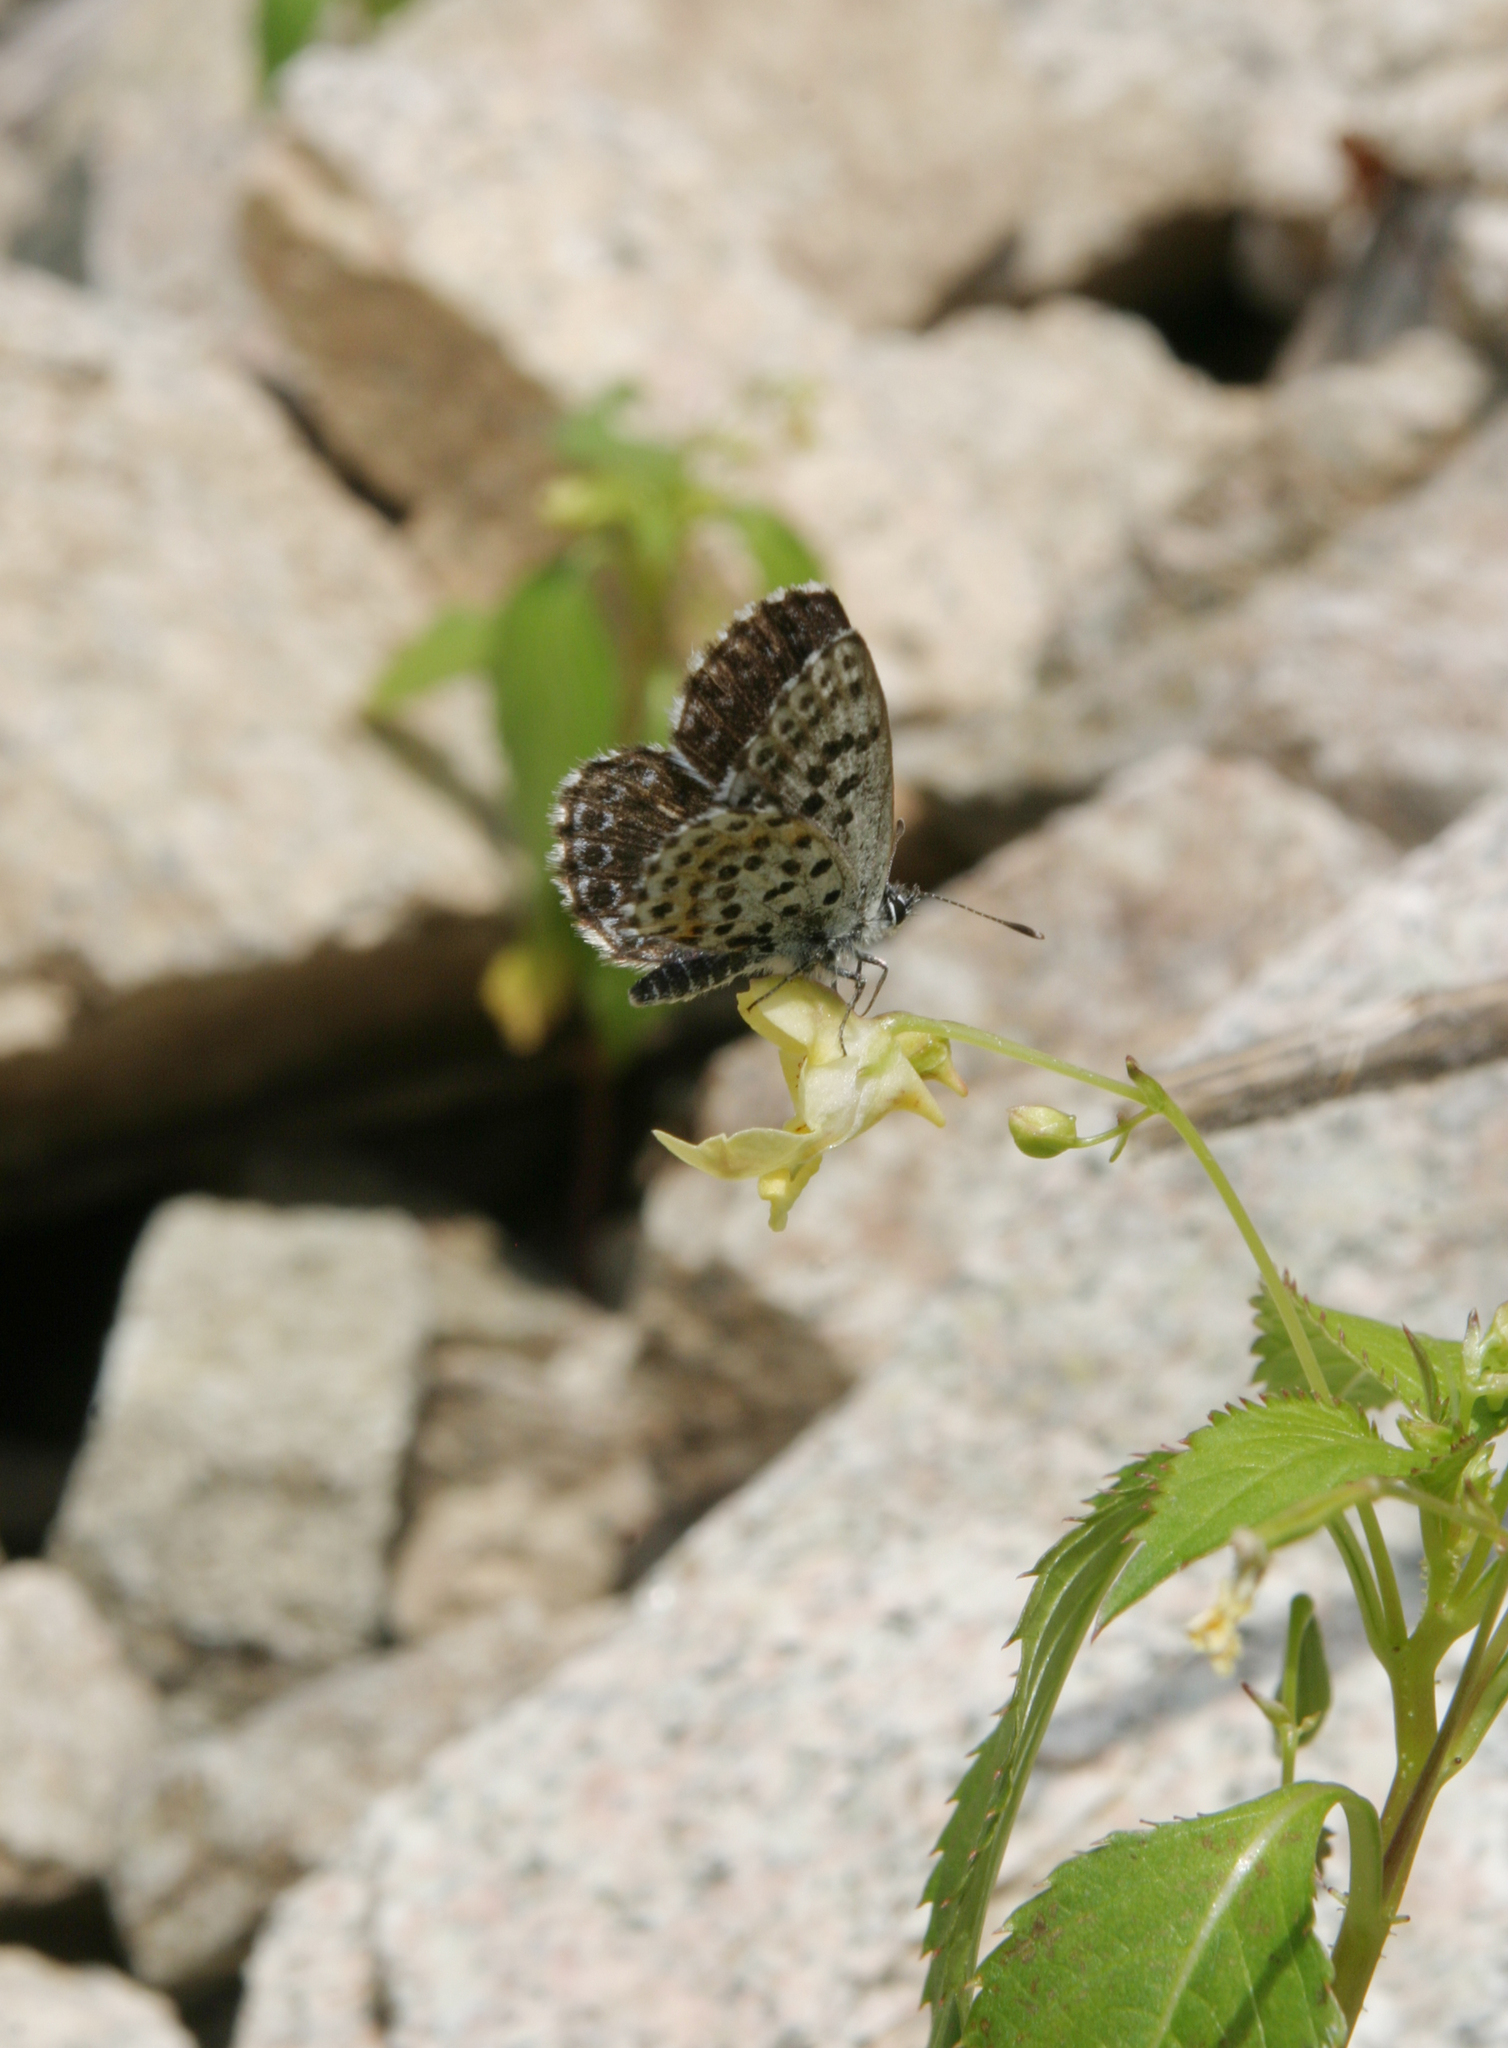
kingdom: Plantae
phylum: Tracheophyta
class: Magnoliopsida
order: Ericales
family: Balsaminaceae
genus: Impatiens
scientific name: Impatiens parviflora
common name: Small balsam
